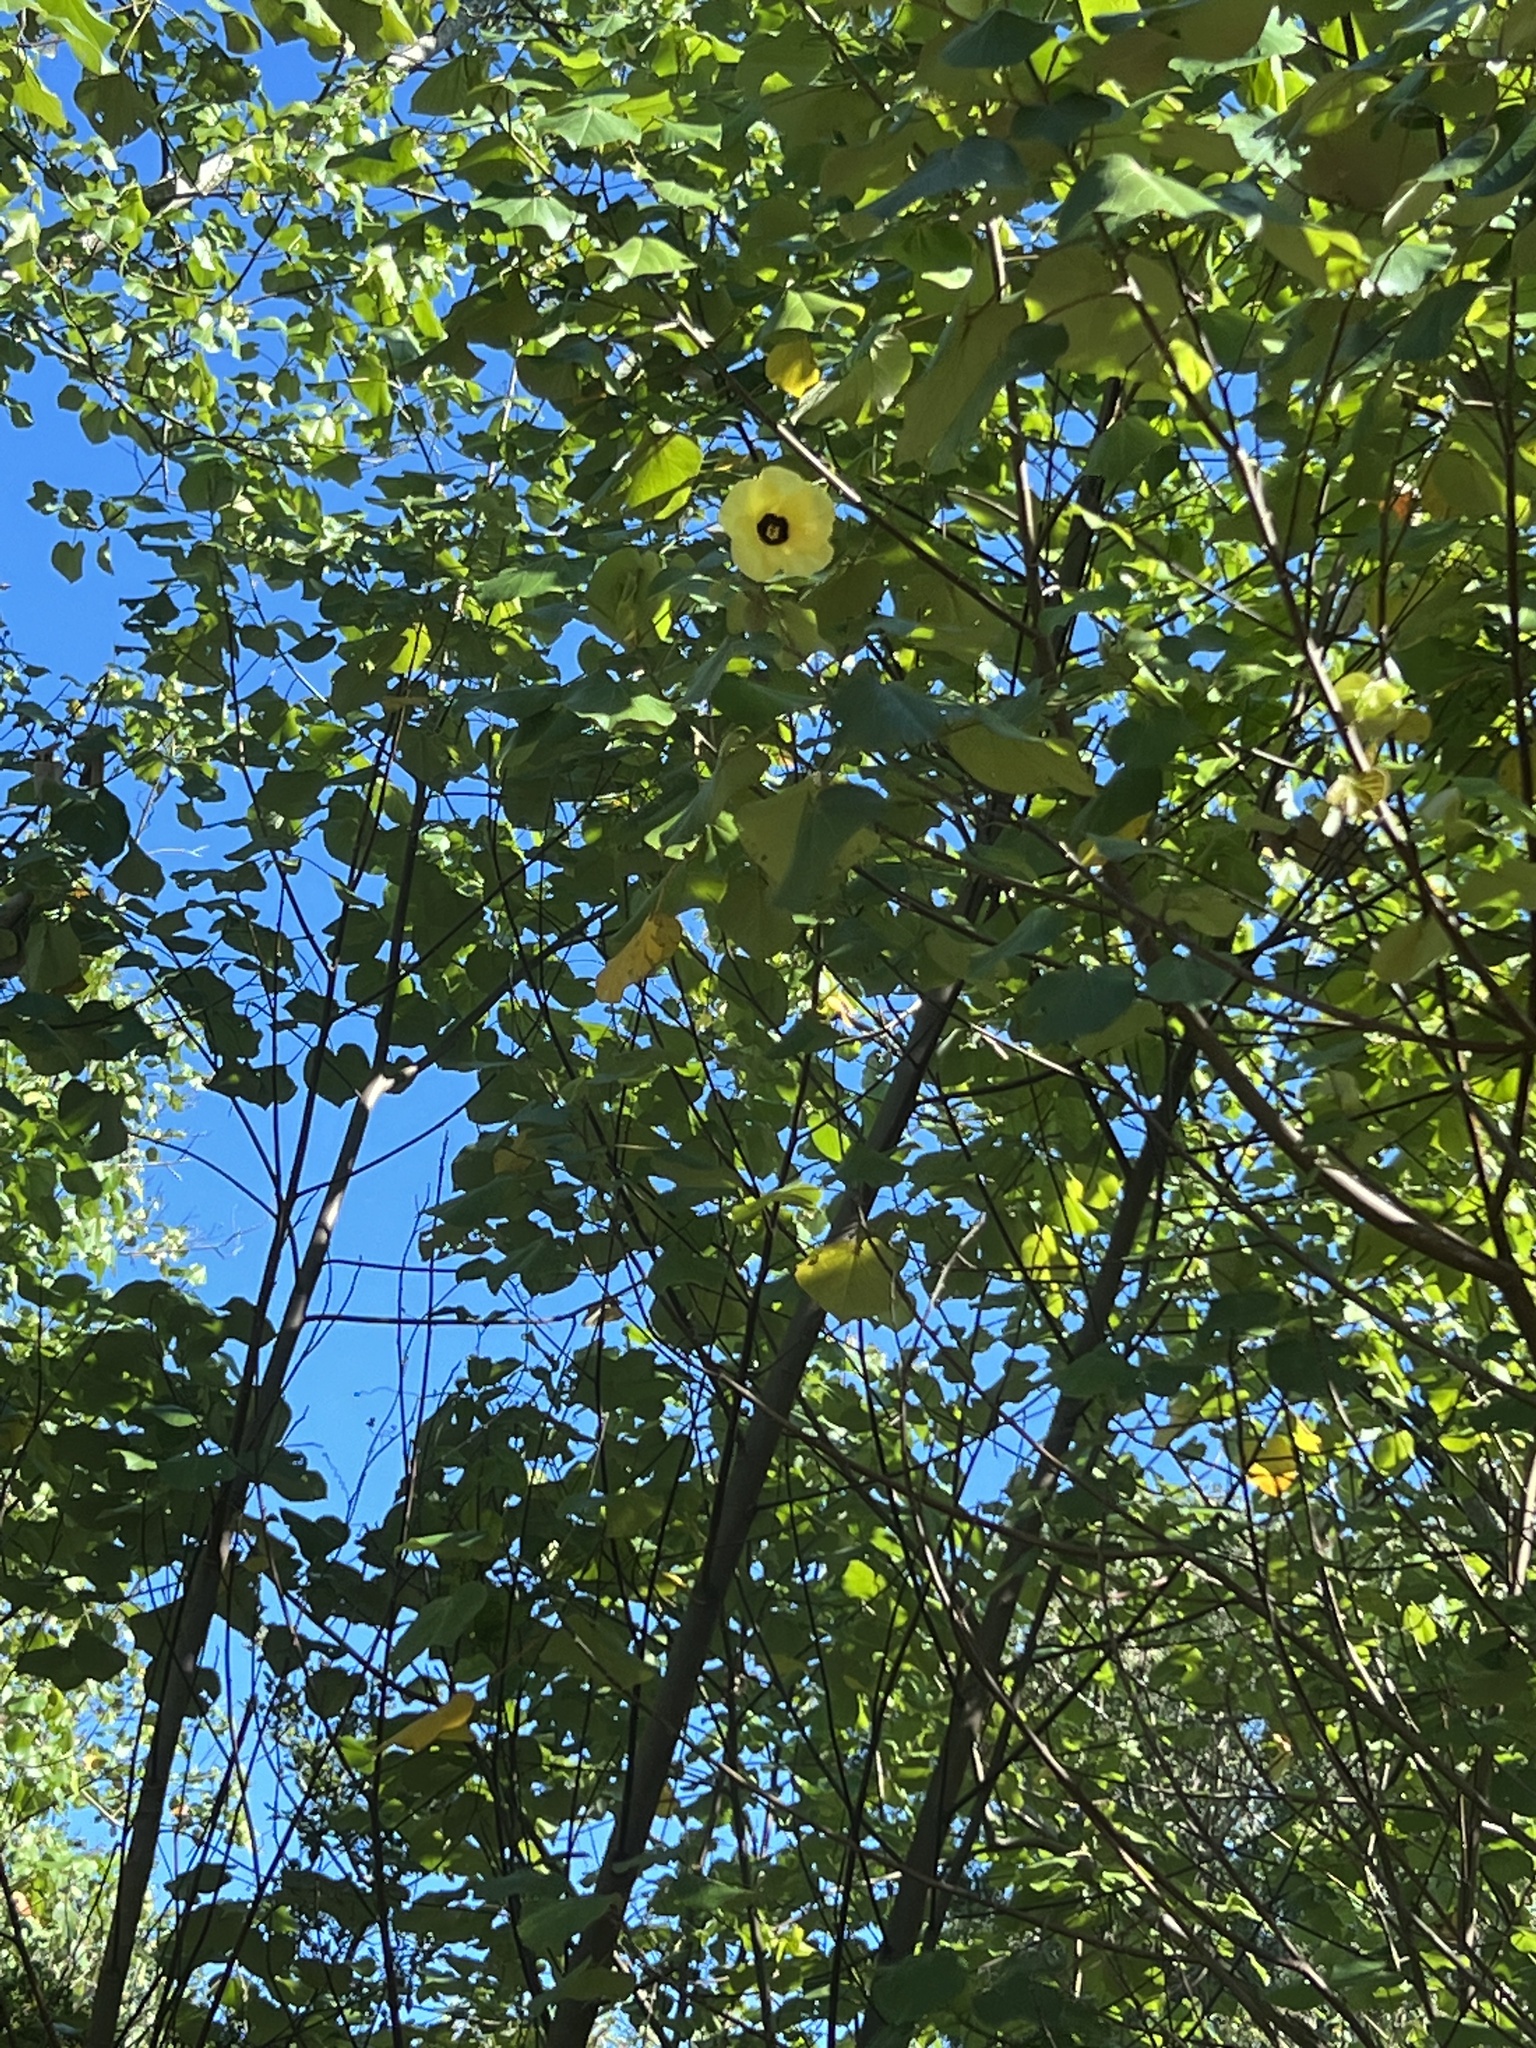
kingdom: Plantae
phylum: Tracheophyta
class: Magnoliopsida
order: Malvales
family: Malvaceae
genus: Talipariti
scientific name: Talipariti tiliaceum
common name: Sea hibiscus
